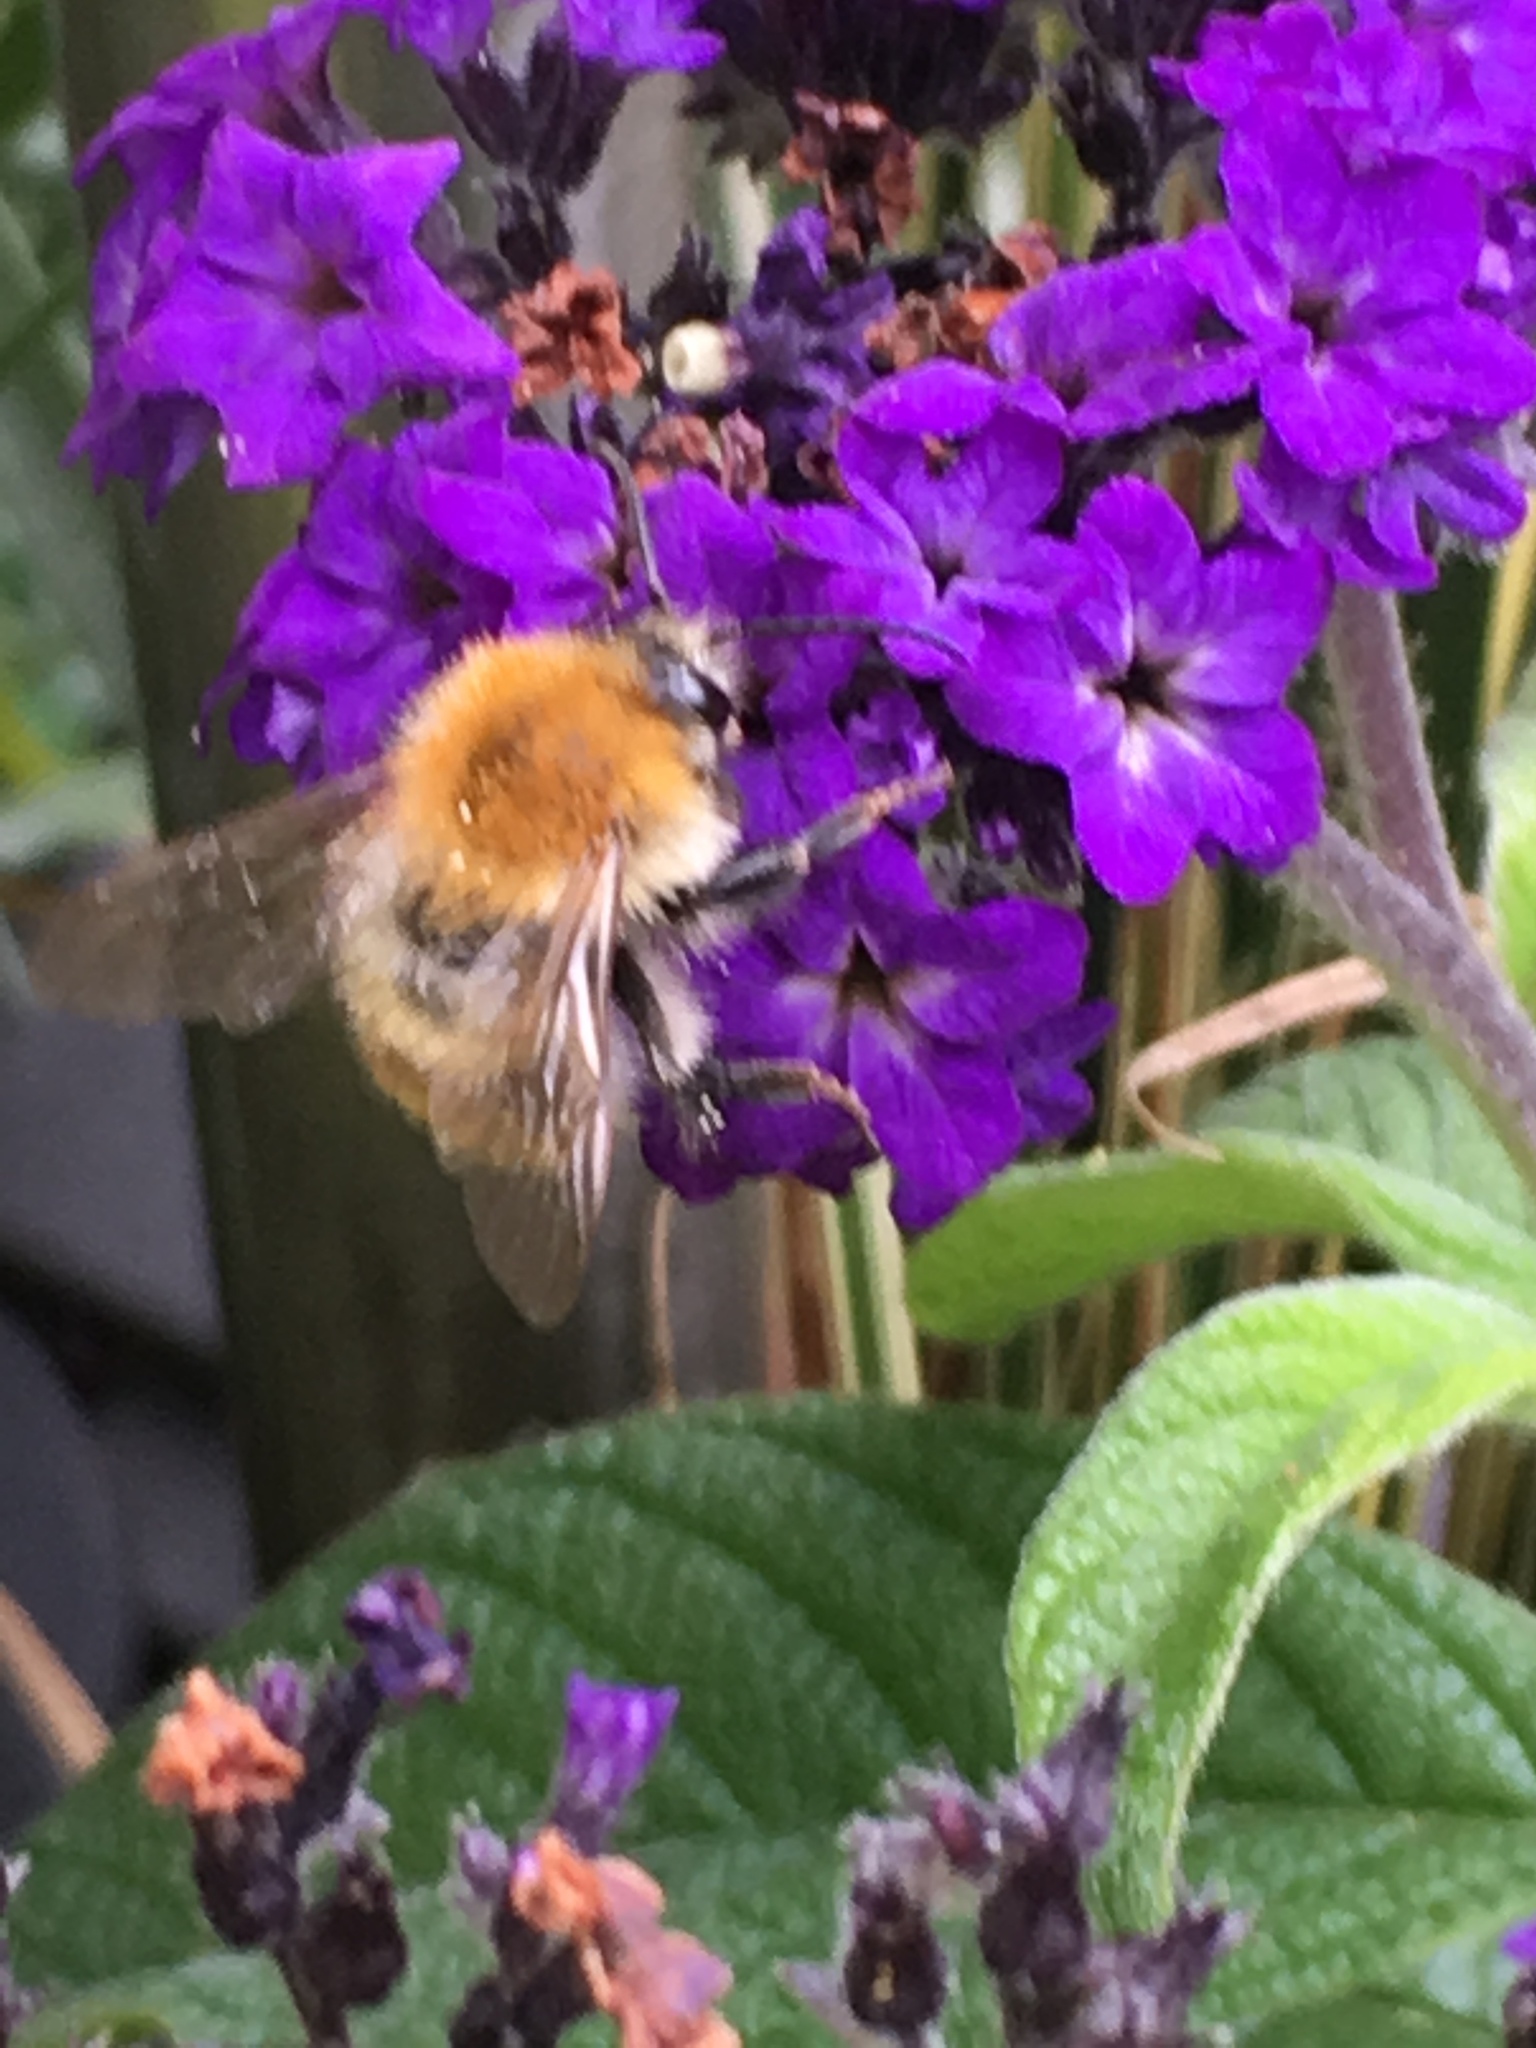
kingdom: Animalia
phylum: Arthropoda
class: Insecta
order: Hymenoptera
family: Apidae
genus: Bombus
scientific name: Bombus pascuorum
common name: Common carder bee
